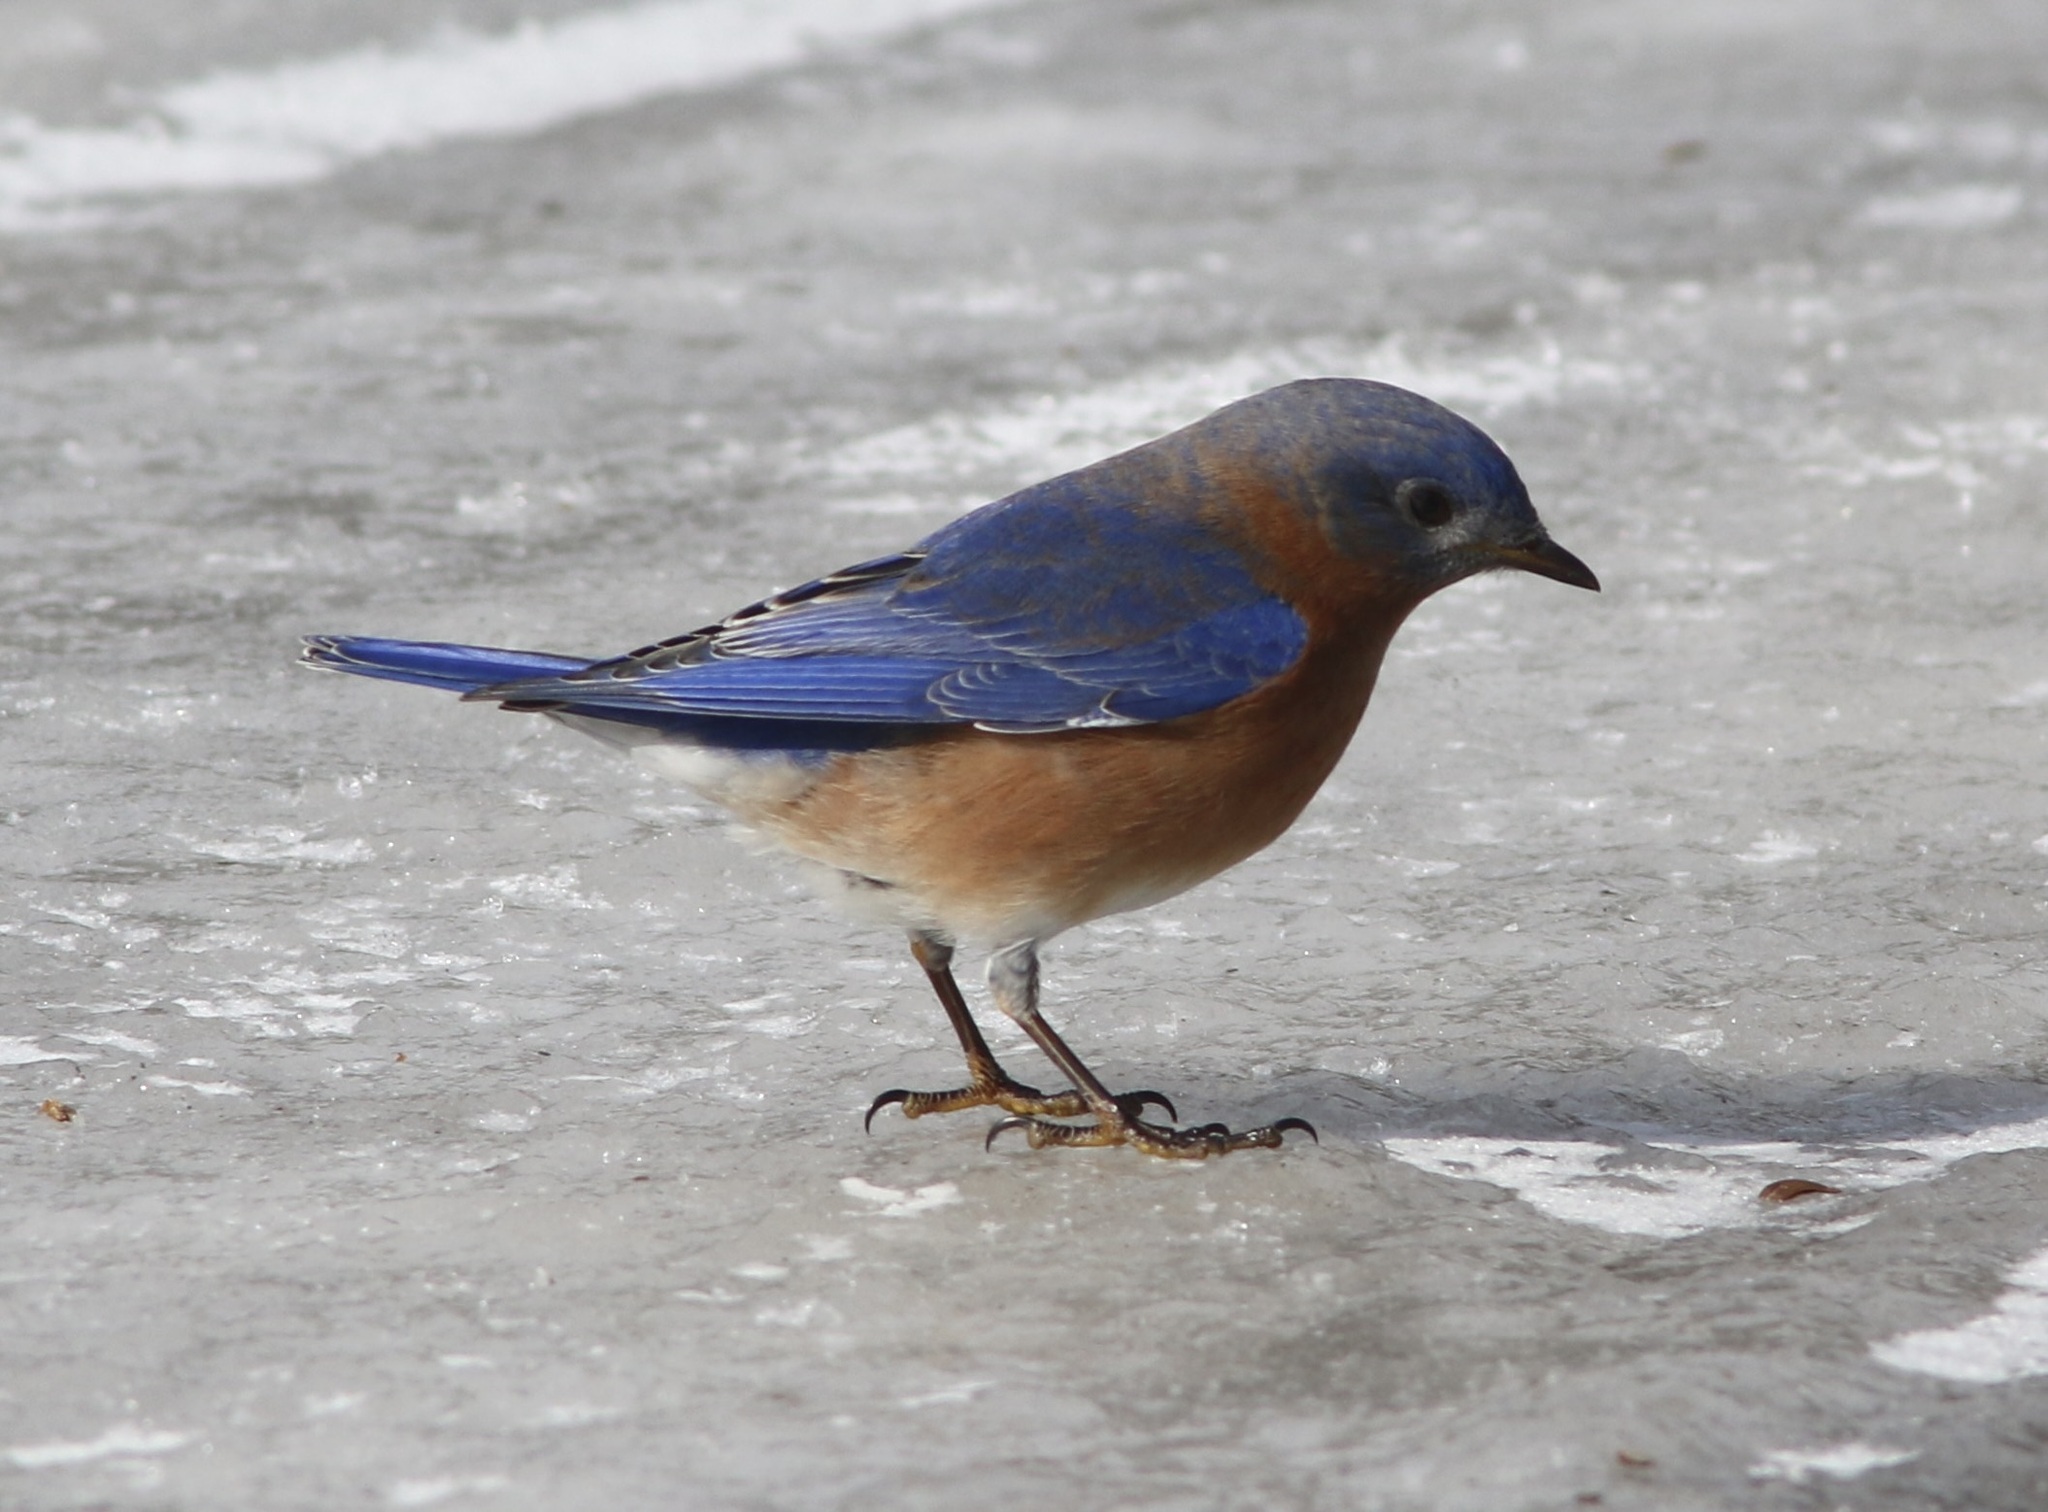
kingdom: Animalia
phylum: Chordata
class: Aves
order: Passeriformes
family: Turdidae
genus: Sialia
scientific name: Sialia sialis
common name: Eastern bluebird
